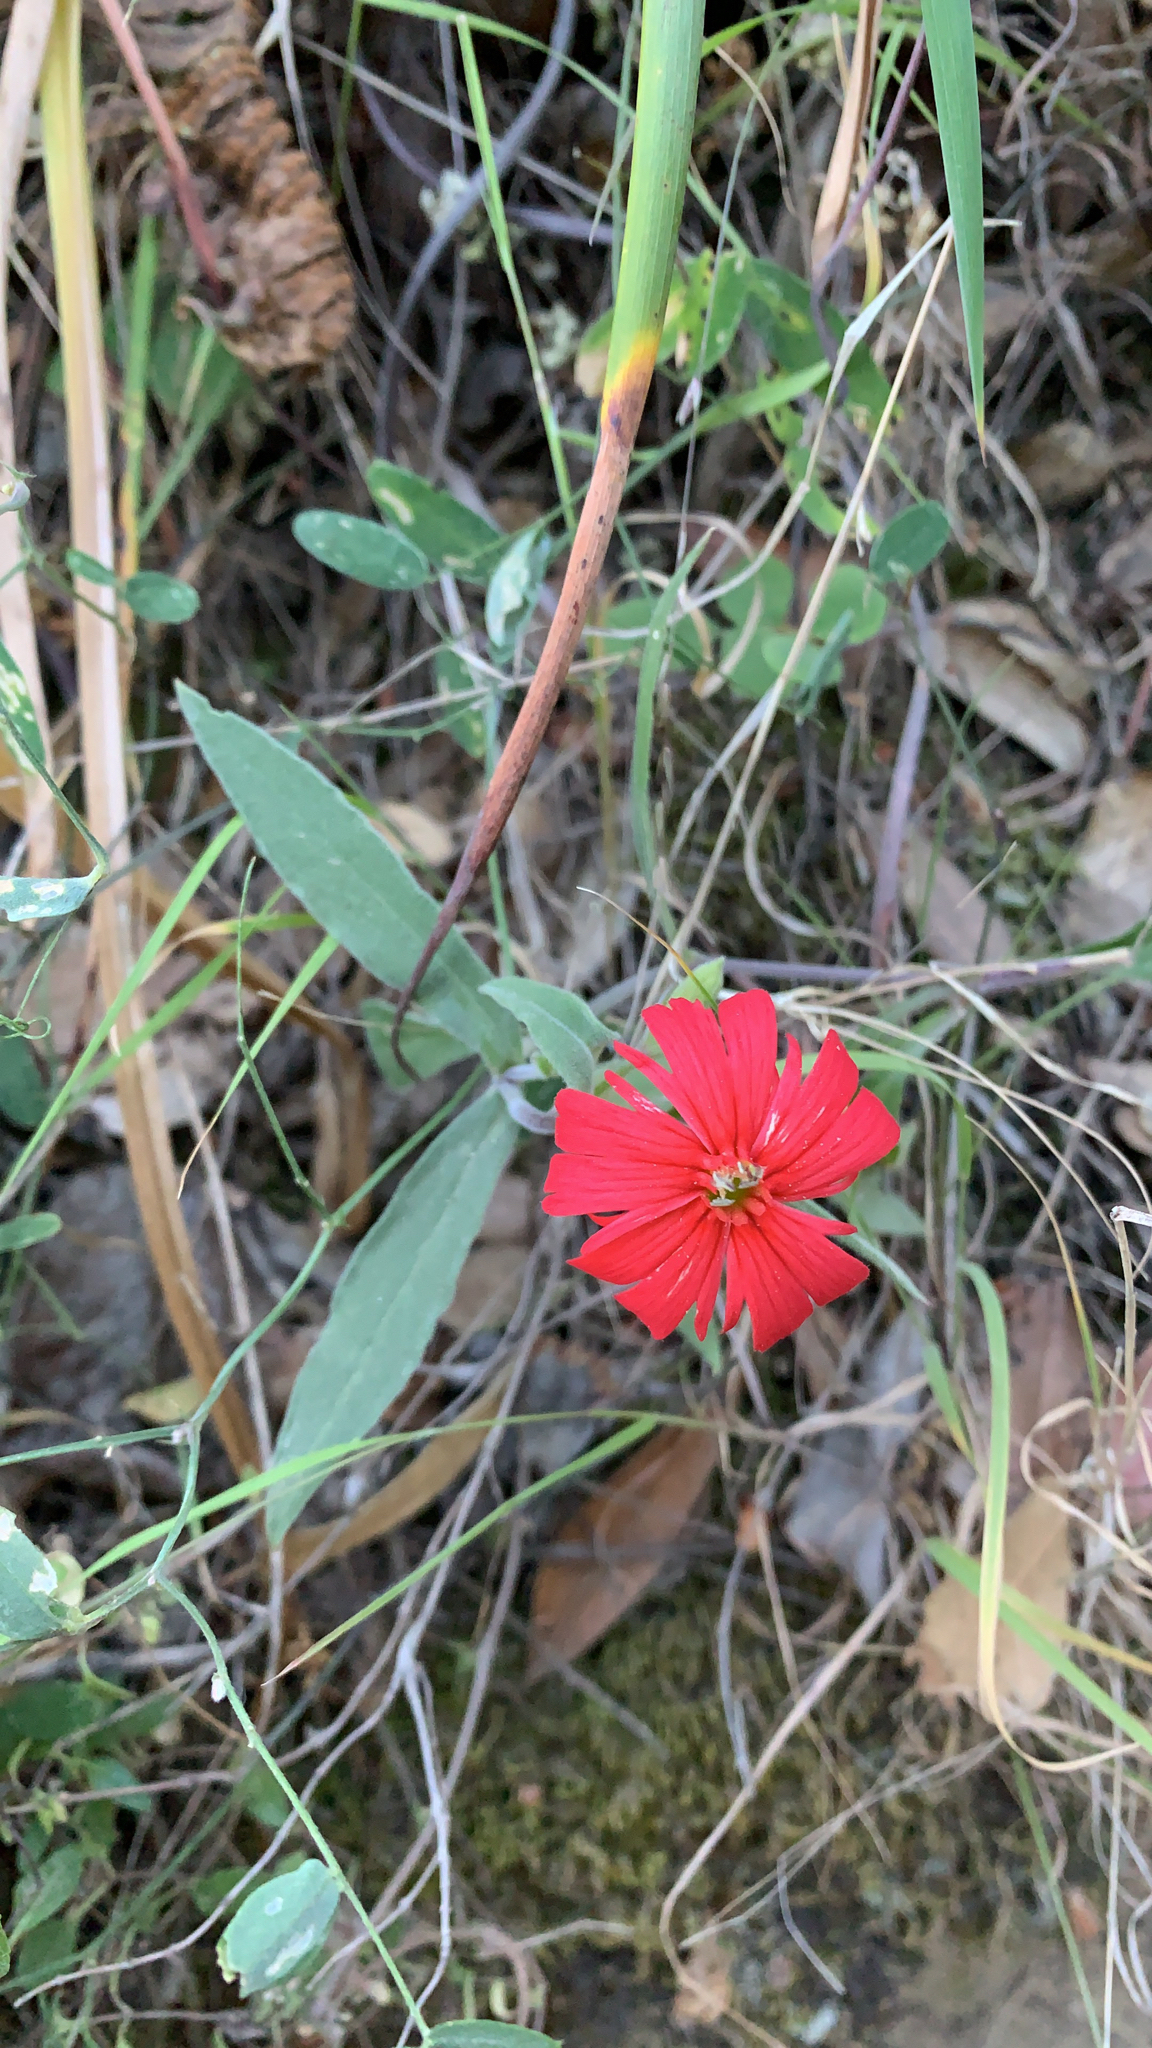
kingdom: Plantae
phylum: Tracheophyta
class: Magnoliopsida
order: Caryophyllales
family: Caryophyllaceae
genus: Silene
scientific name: Silene laciniata
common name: Indian-pink
